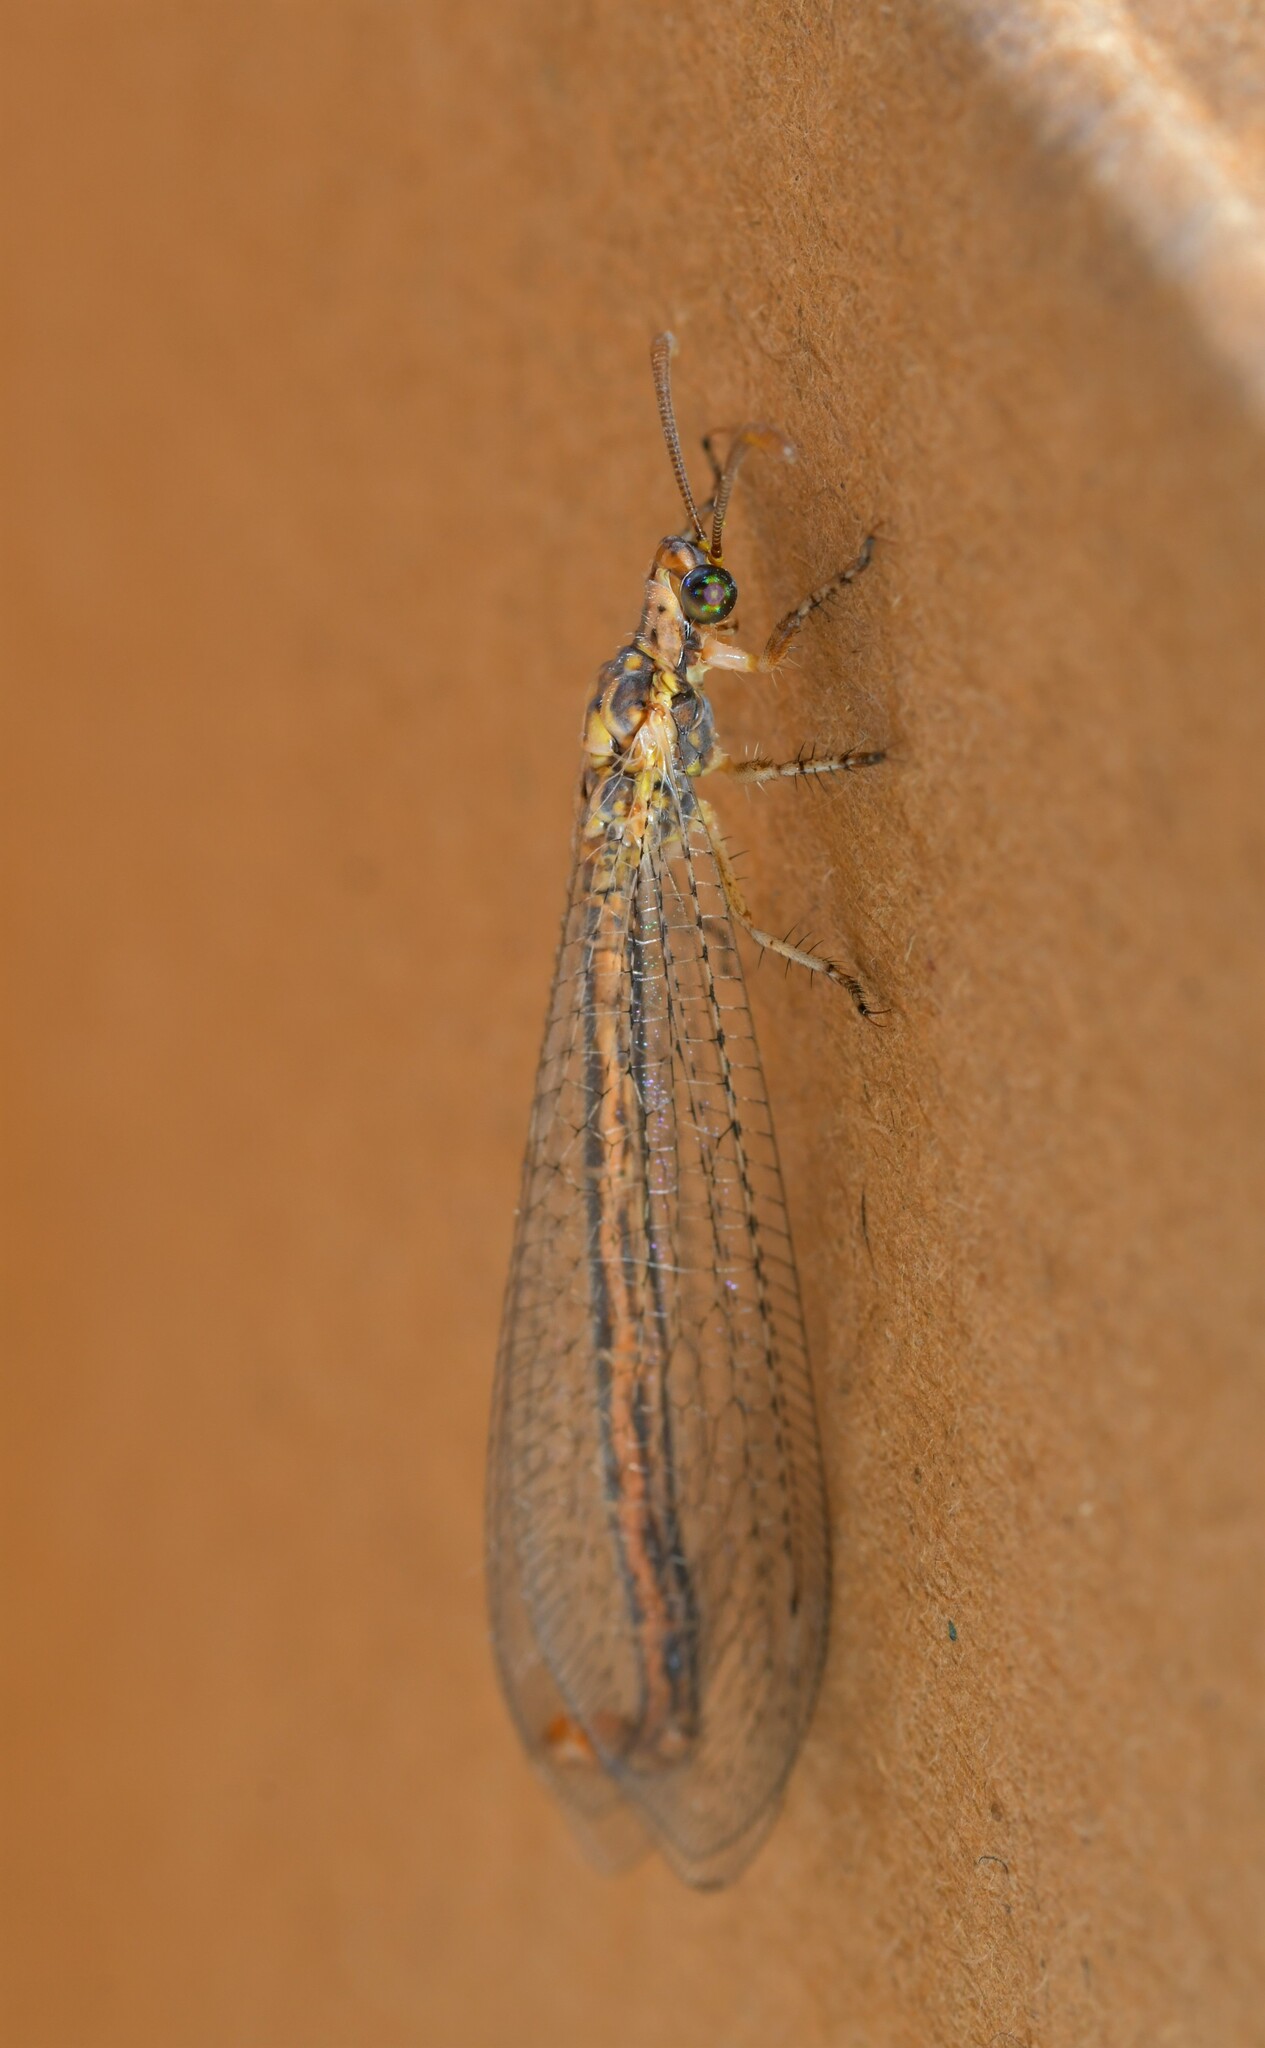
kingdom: Animalia
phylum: Arthropoda
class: Insecta
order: Neuroptera
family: Myrmeleontidae
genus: Macronemurus
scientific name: Macronemurus appendiculatus
